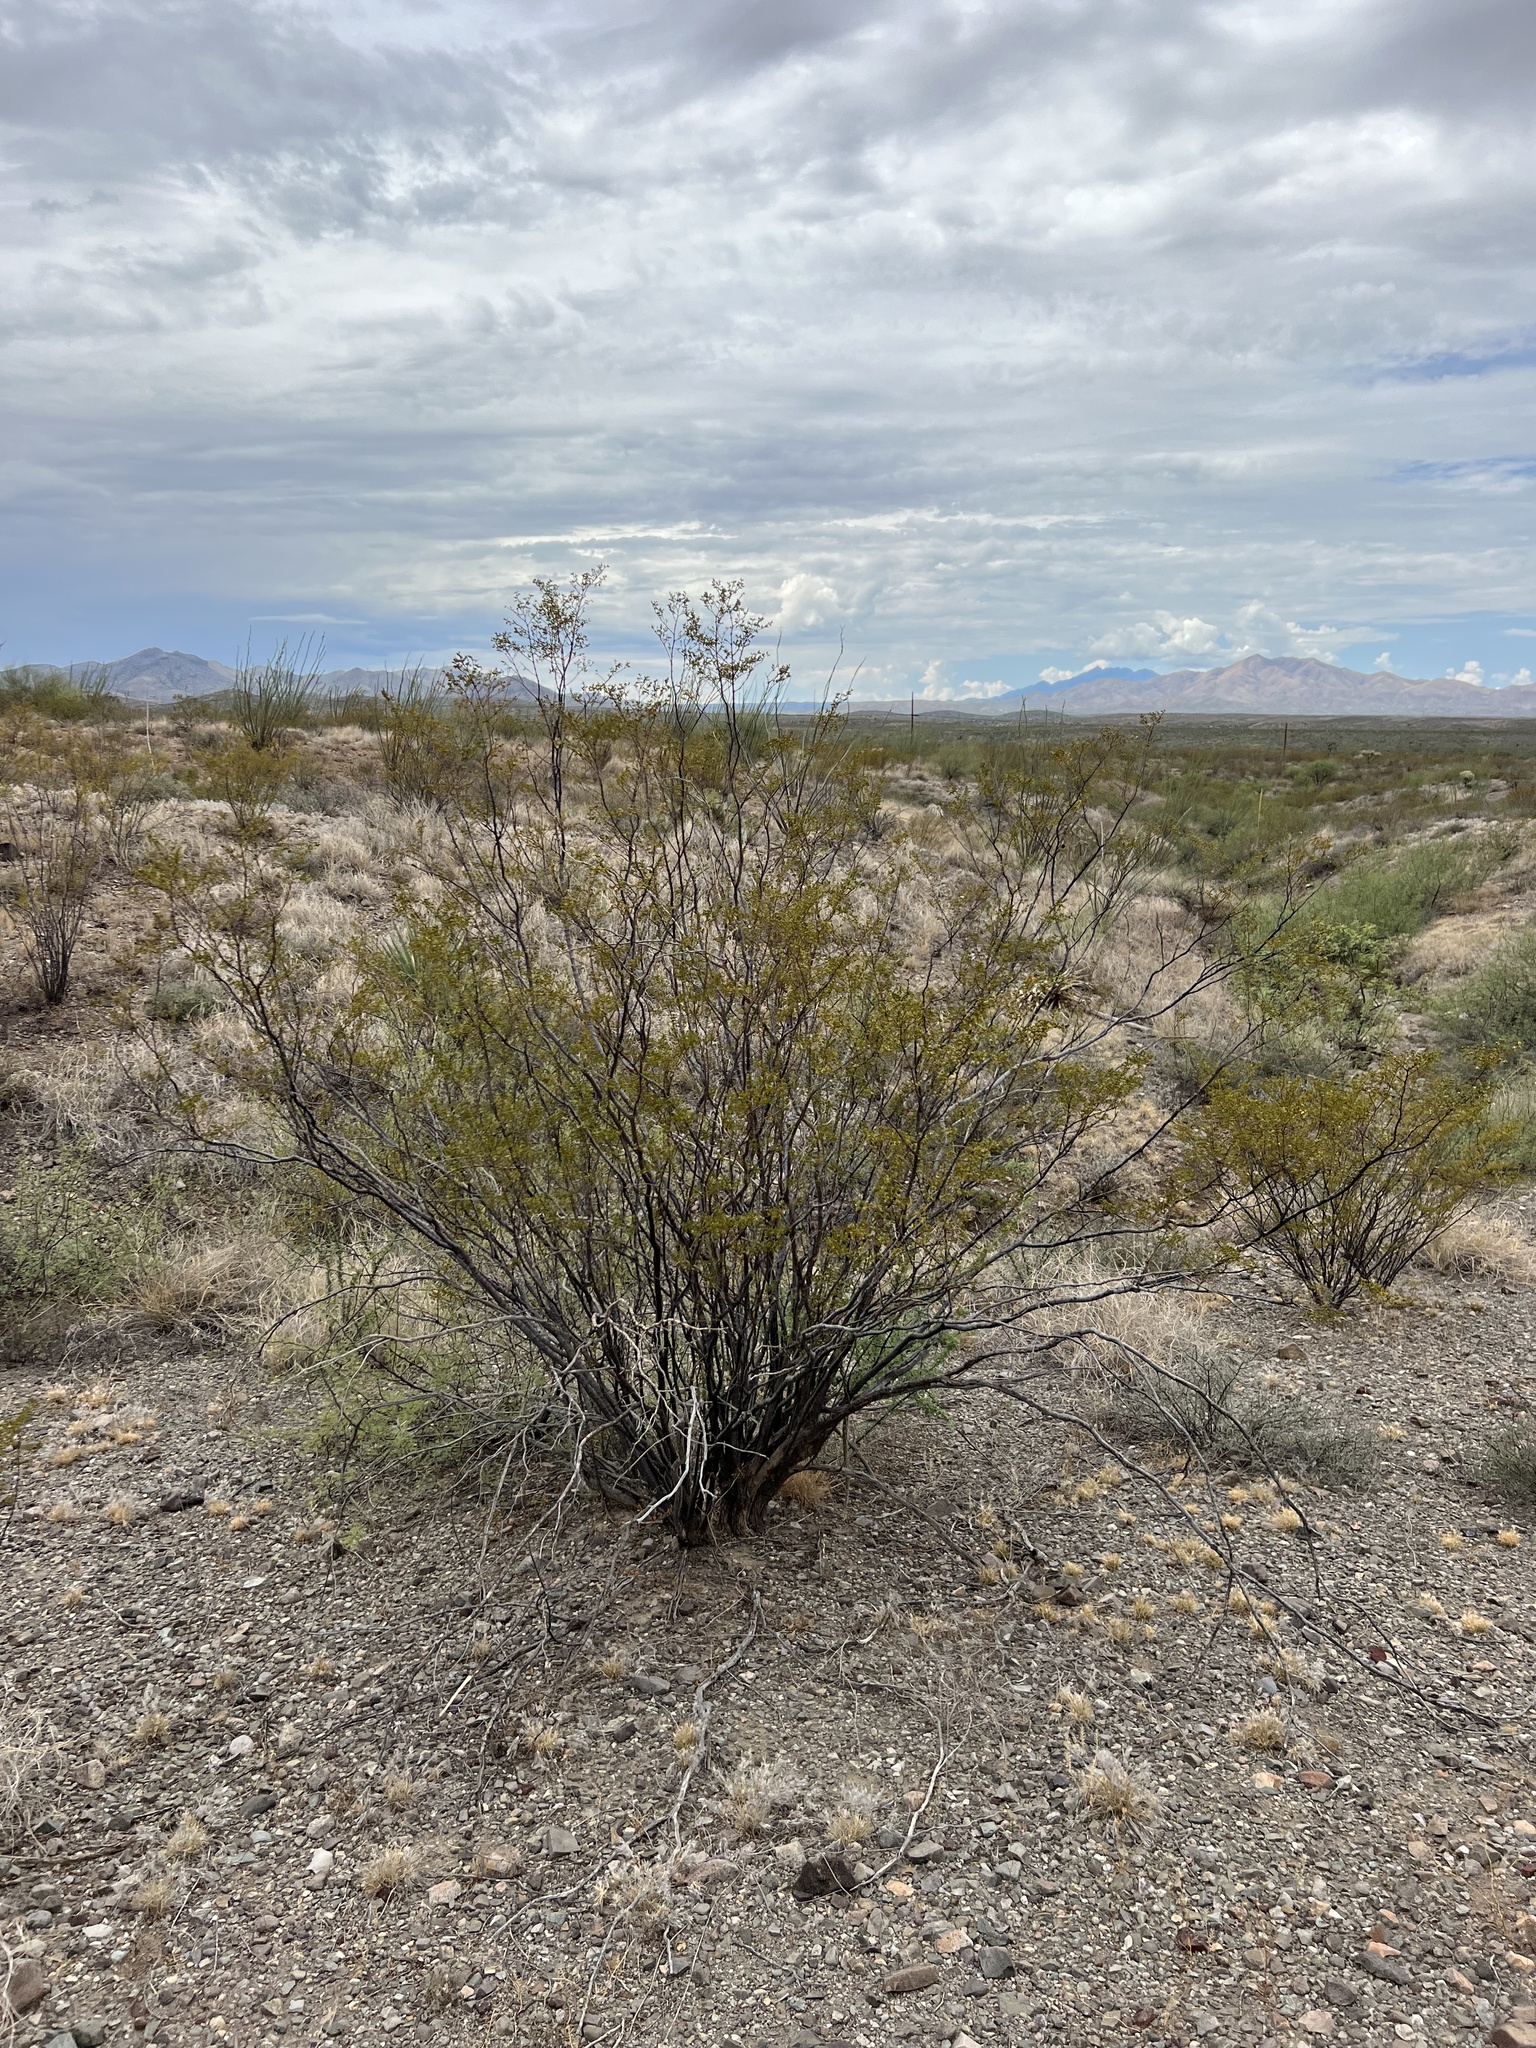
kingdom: Plantae
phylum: Tracheophyta
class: Magnoliopsida
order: Zygophyllales
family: Zygophyllaceae
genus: Larrea
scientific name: Larrea tridentata
